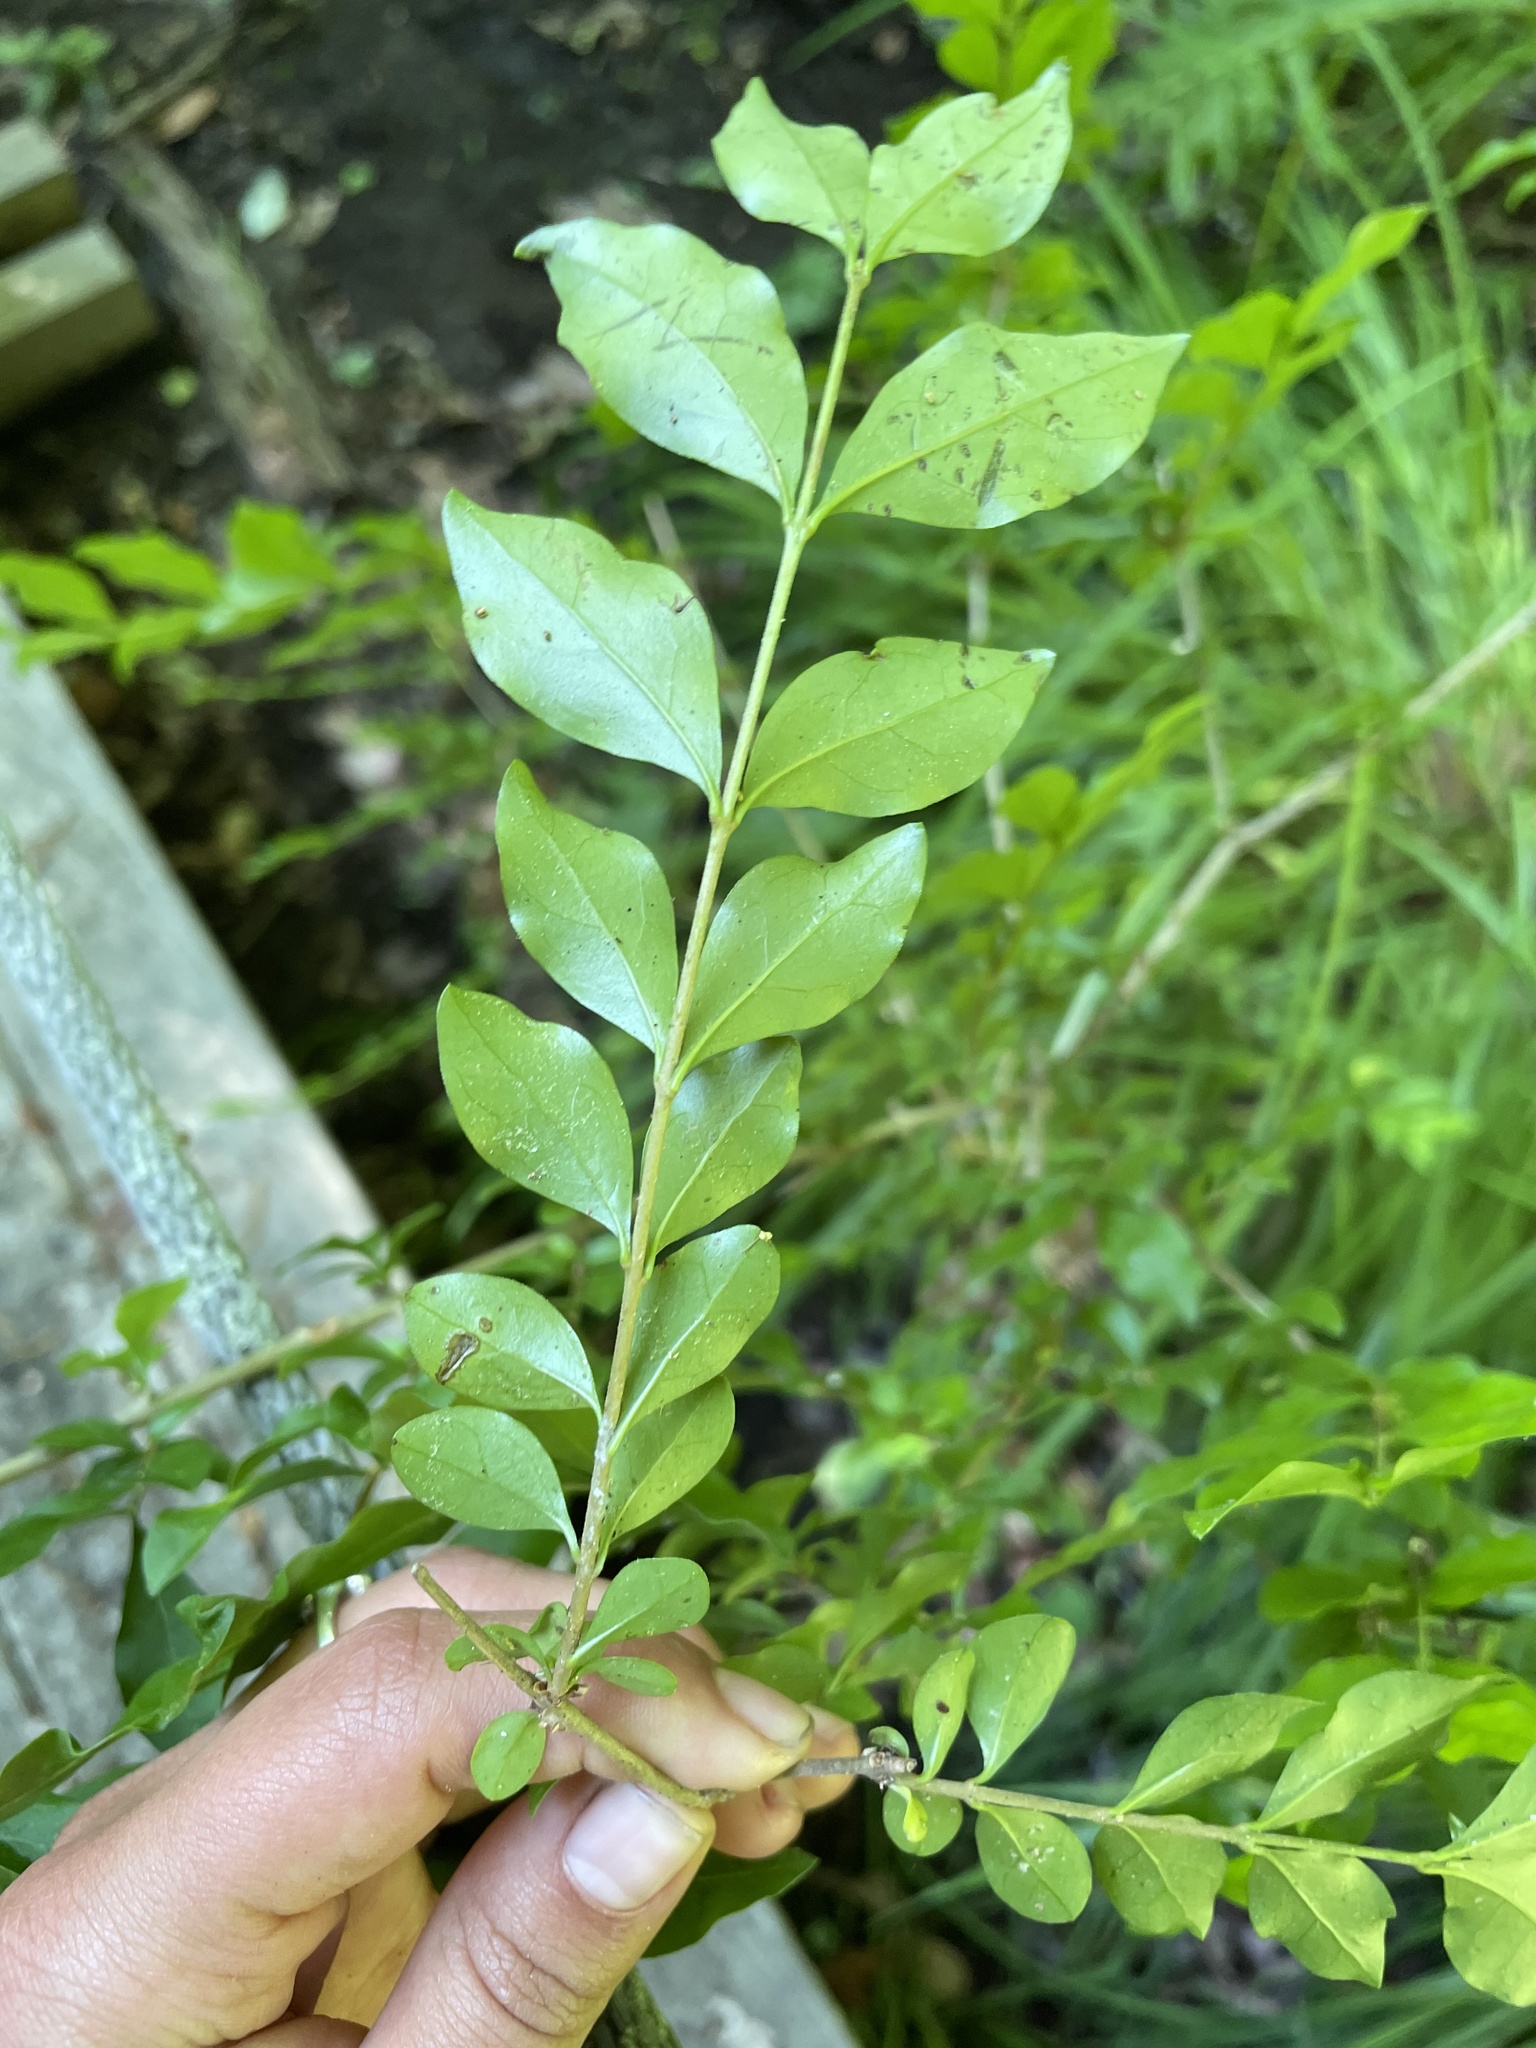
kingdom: Plantae
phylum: Tracheophyta
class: Magnoliopsida
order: Lamiales
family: Oleaceae
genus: Ligustrum
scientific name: Ligustrum obtusifolium
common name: Border privet
